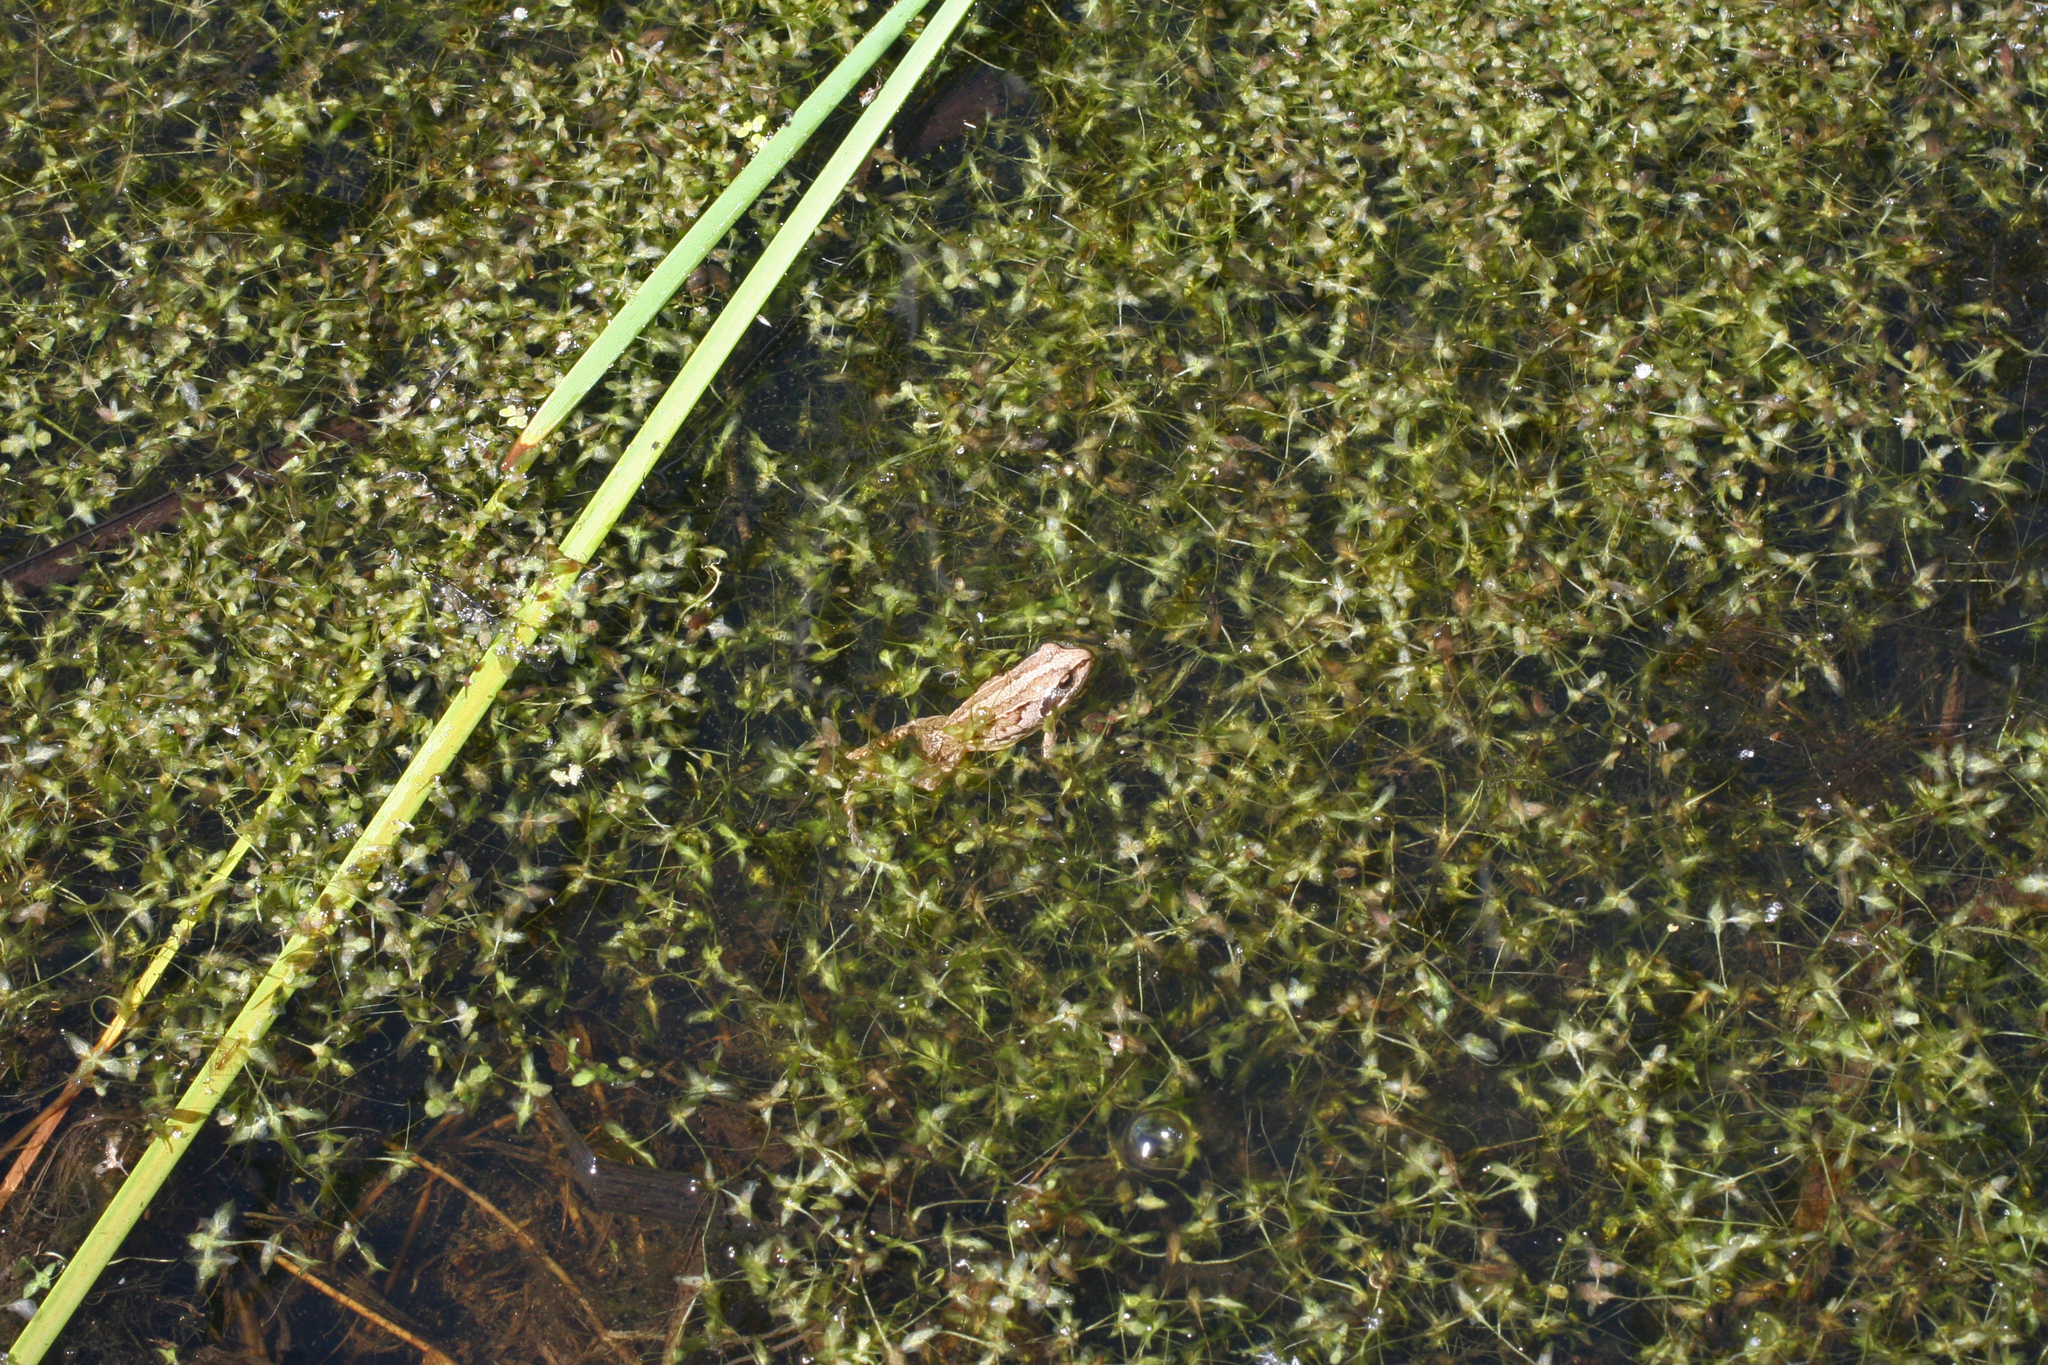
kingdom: Animalia
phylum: Chordata
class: Amphibia
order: Anura
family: Ranidae
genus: Rana
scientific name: Rana arvalis
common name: Moor frog
